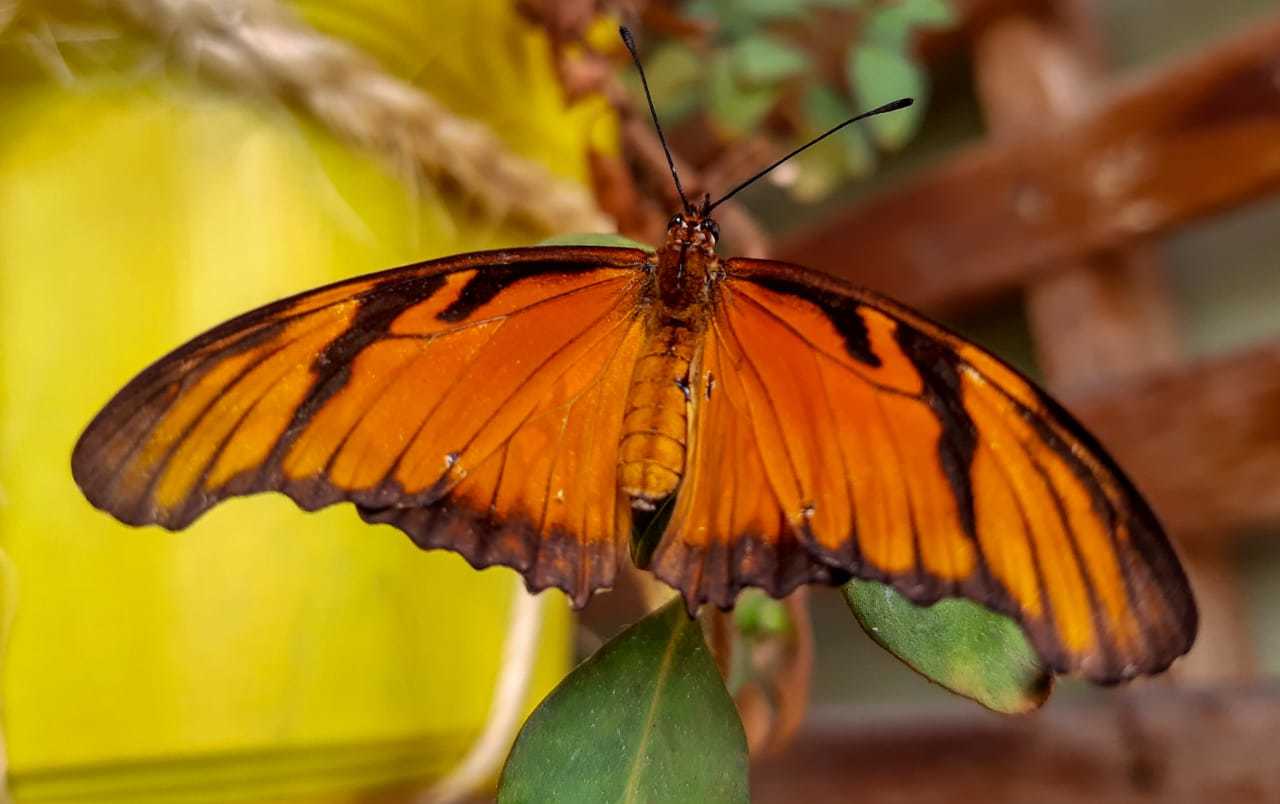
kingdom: Animalia
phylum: Arthropoda
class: Insecta
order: Lepidoptera
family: Nymphalidae
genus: Dione
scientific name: Dione juno
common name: Juno silverspot
